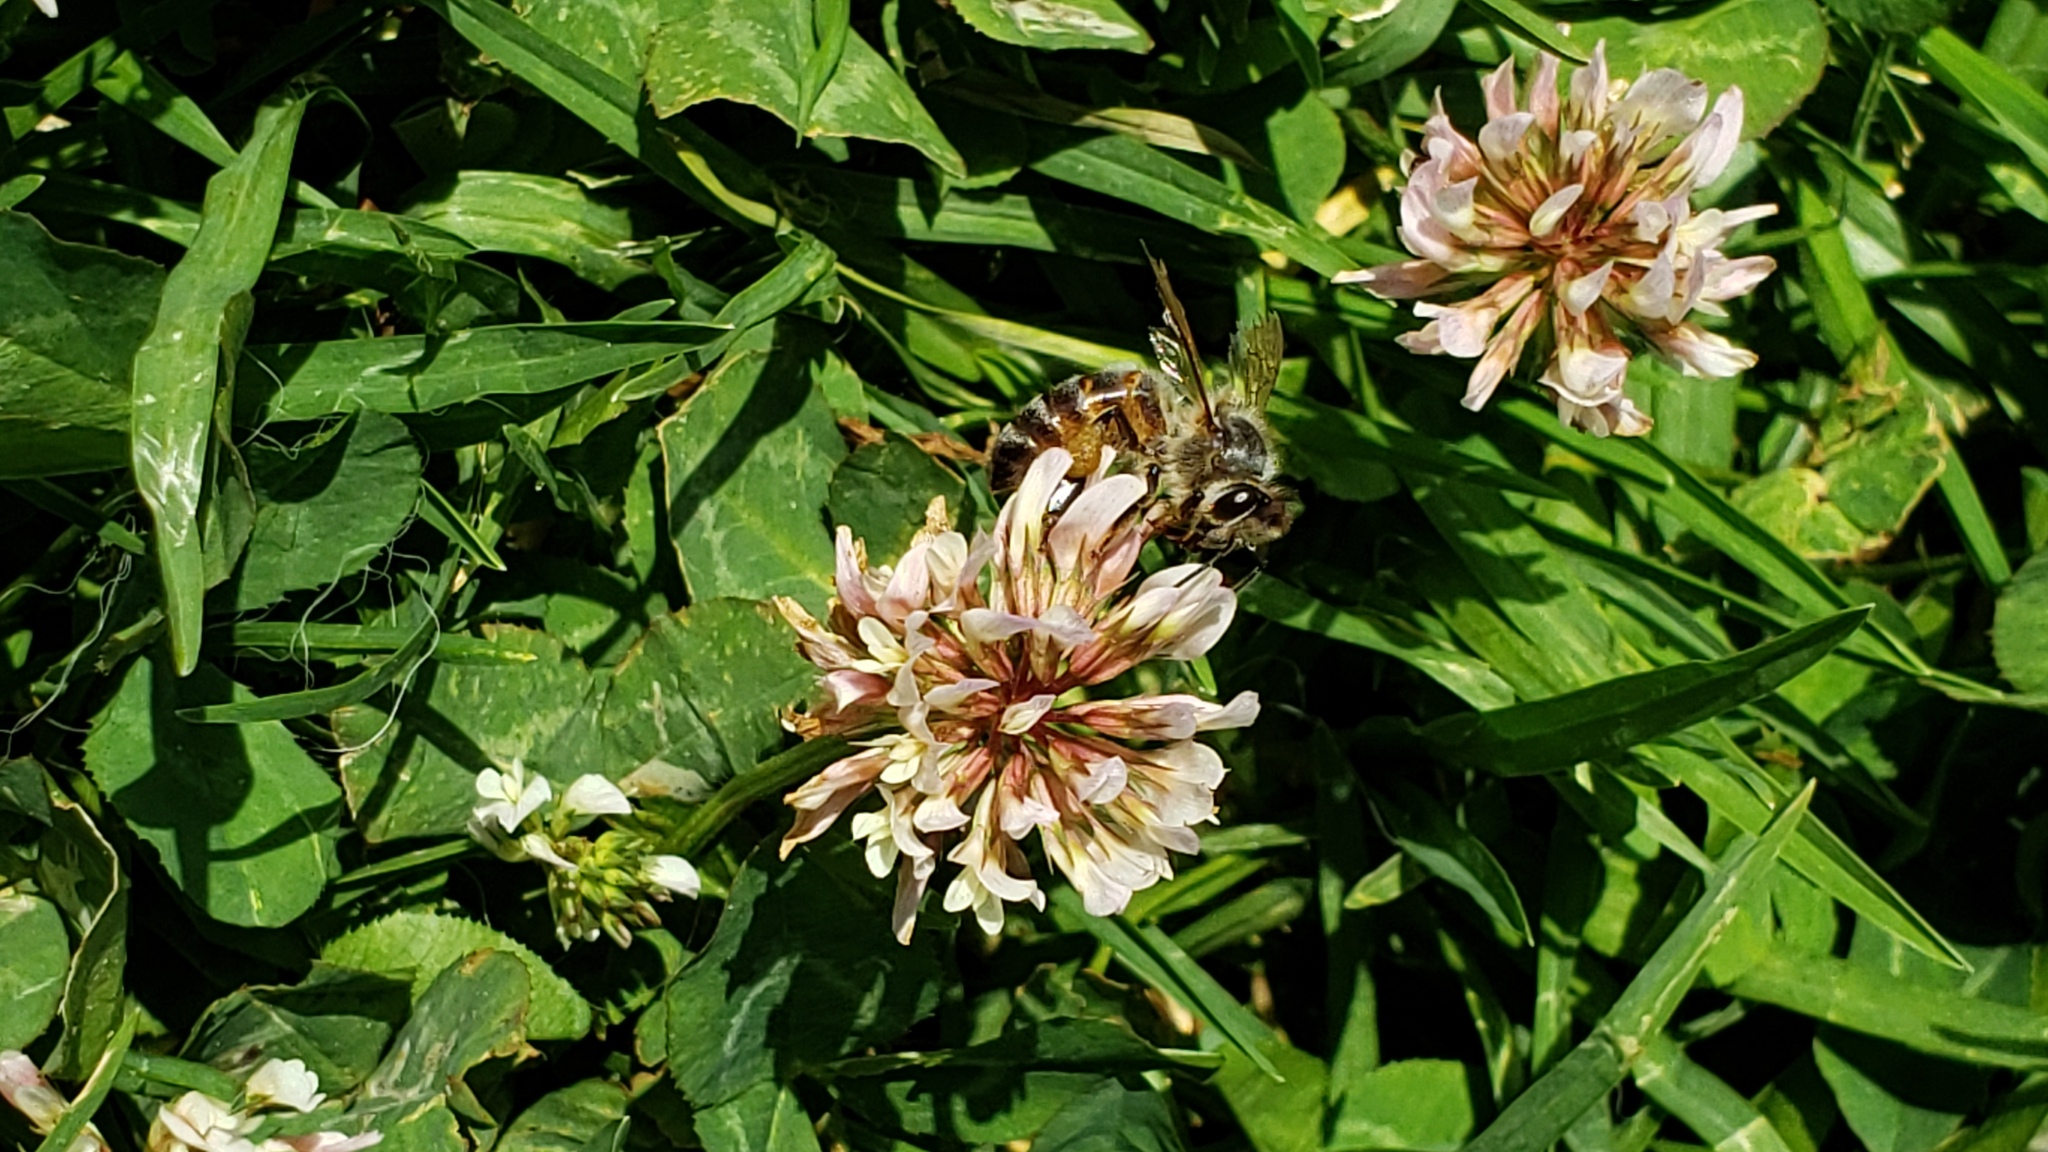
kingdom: Animalia
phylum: Arthropoda
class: Insecta
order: Hymenoptera
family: Apidae
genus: Apis
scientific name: Apis mellifera
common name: Honey bee
